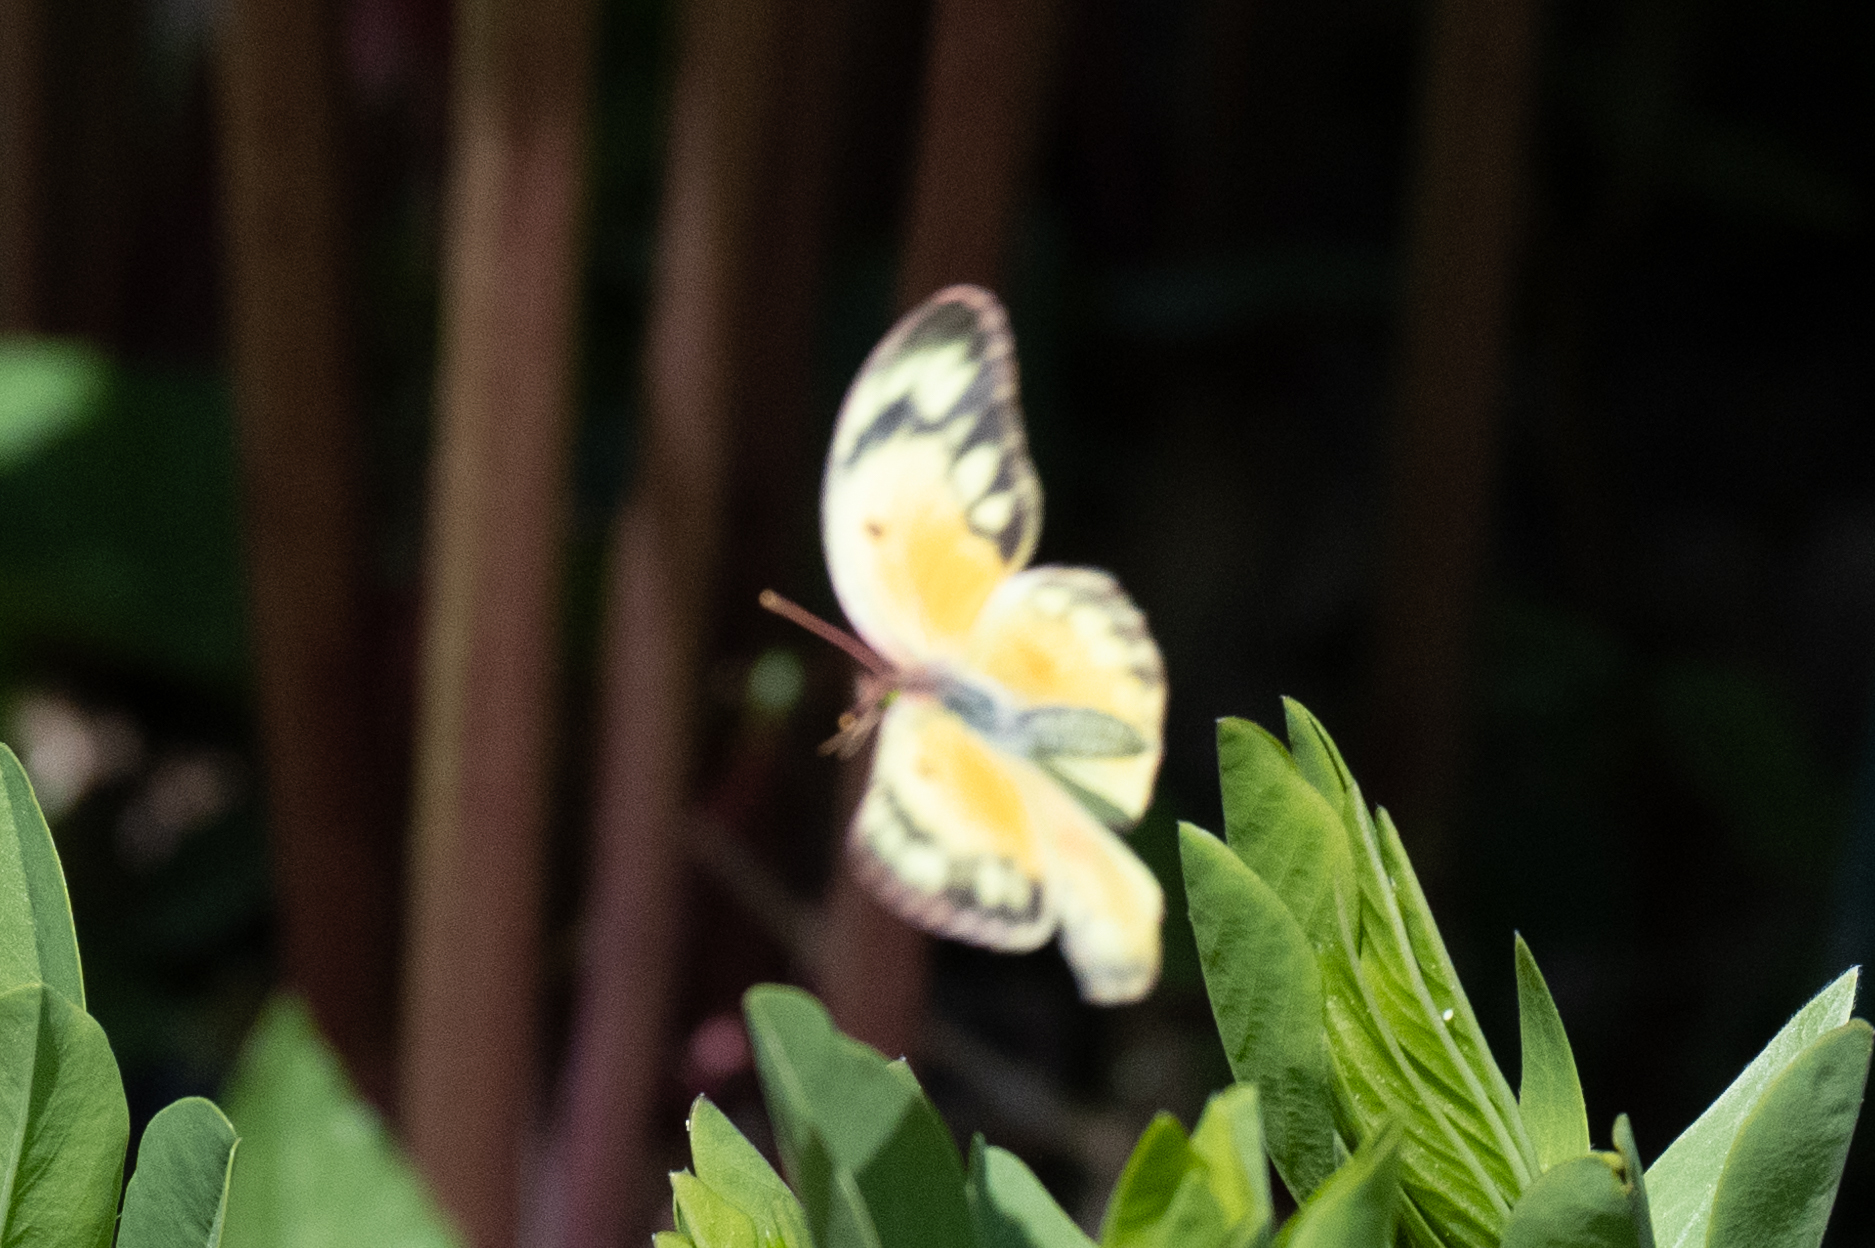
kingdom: Animalia
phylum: Arthropoda
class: Insecta
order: Lepidoptera
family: Pieridae
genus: Colias
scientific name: Colias eurytheme
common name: Alfalfa butterfly
